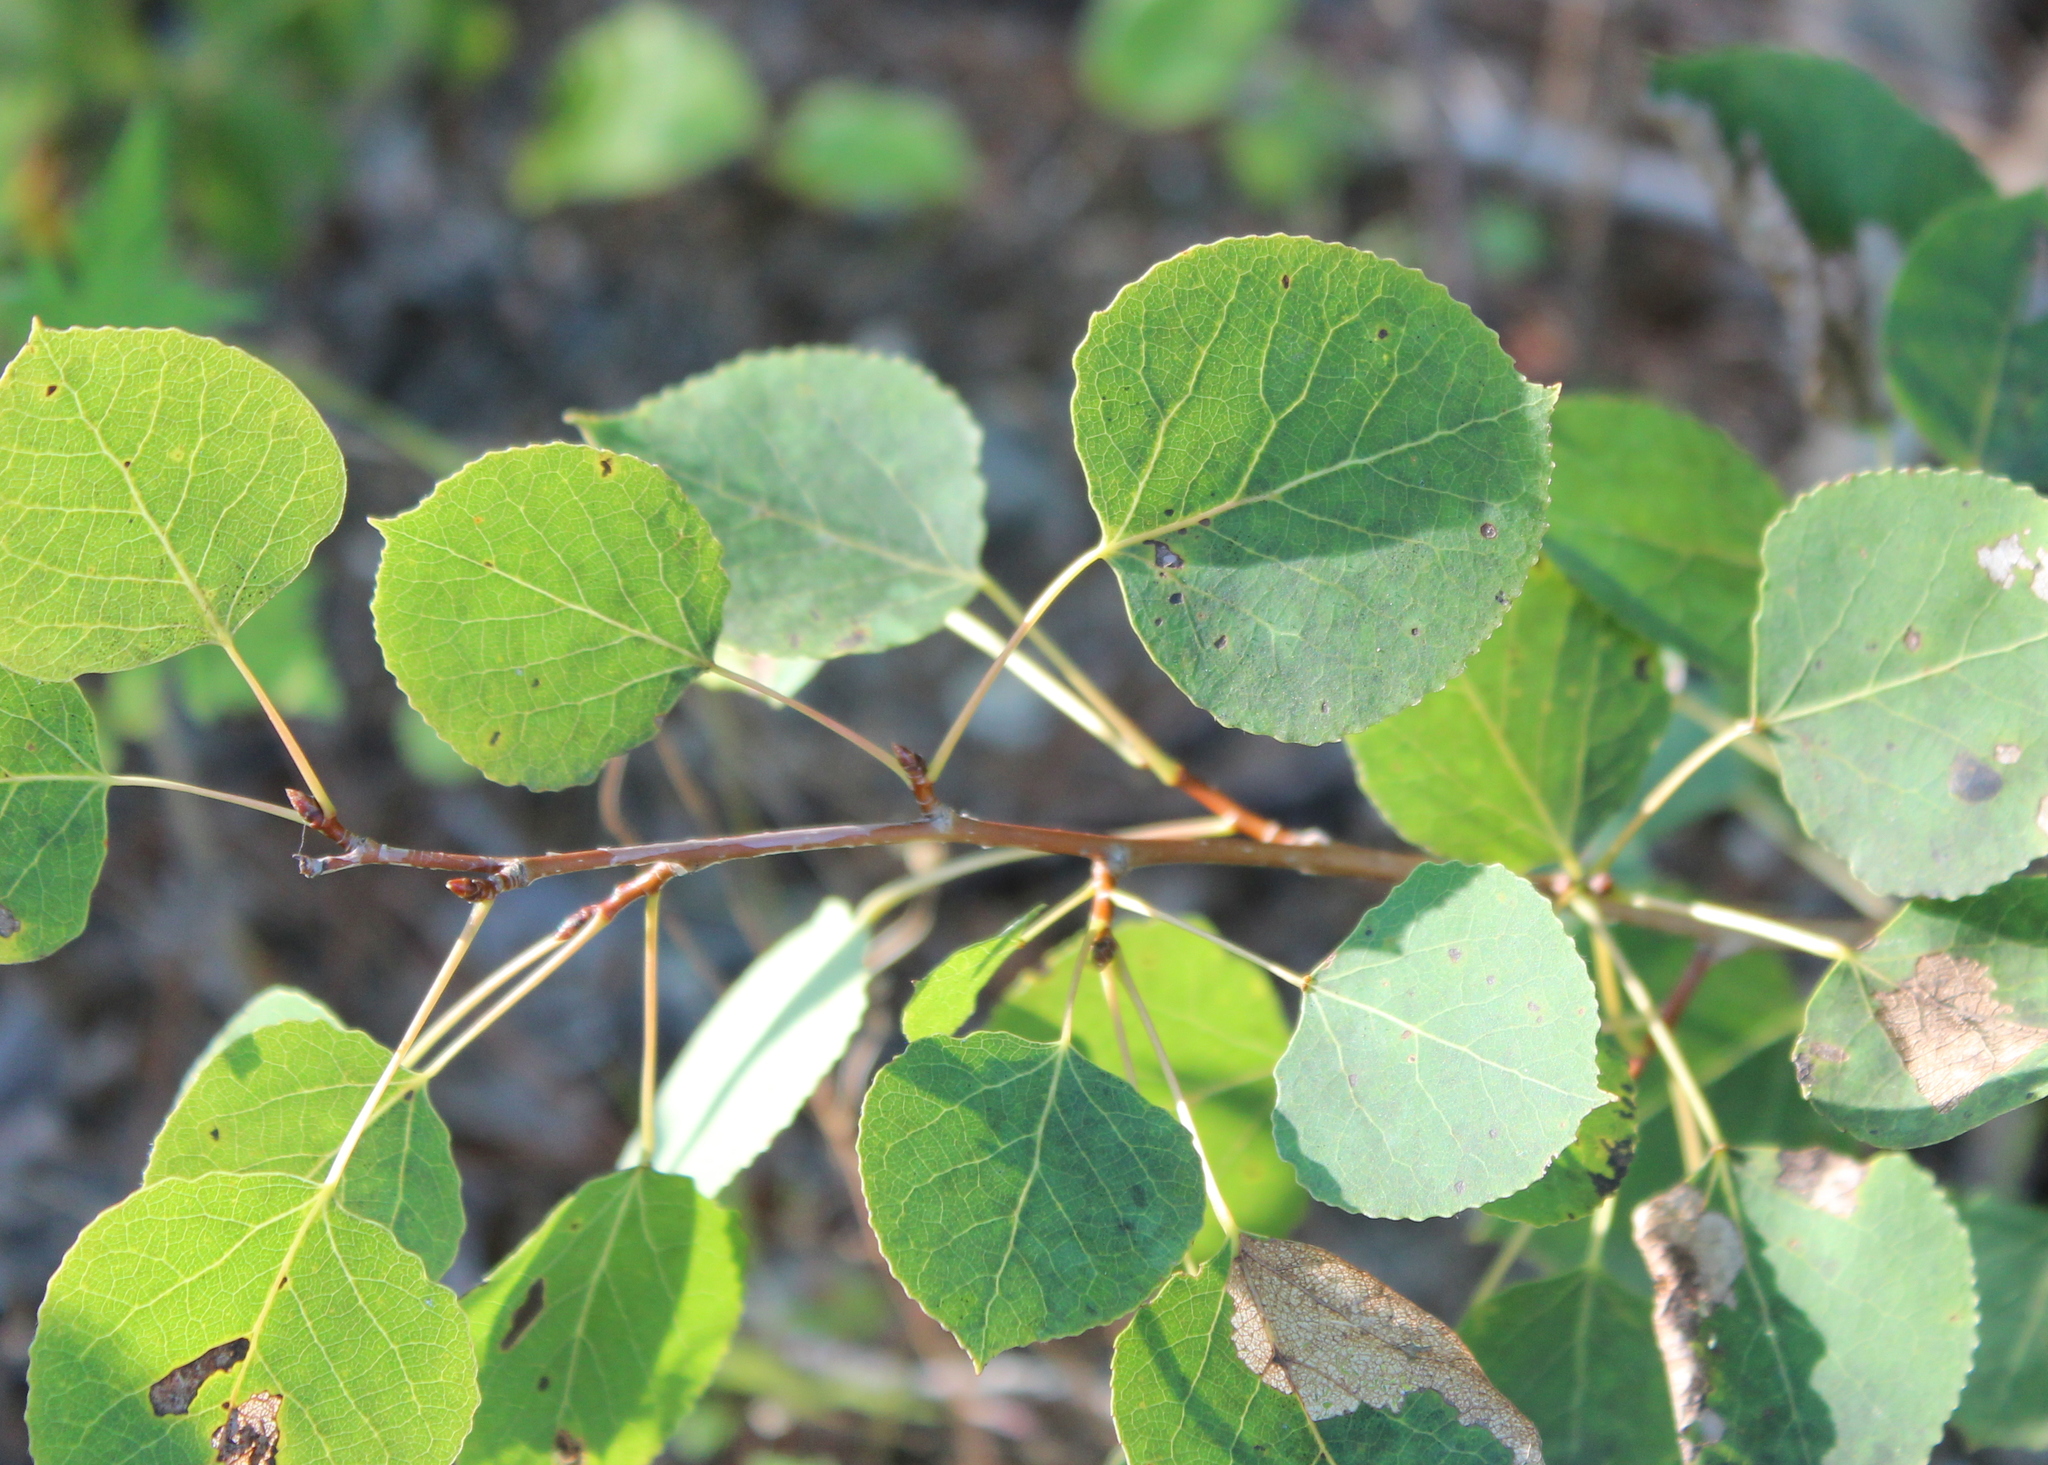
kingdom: Plantae
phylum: Tracheophyta
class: Magnoliopsida
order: Malpighiales
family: Salicaceae
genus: Populus
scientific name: Populus tremuloides
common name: Quaking aspen
